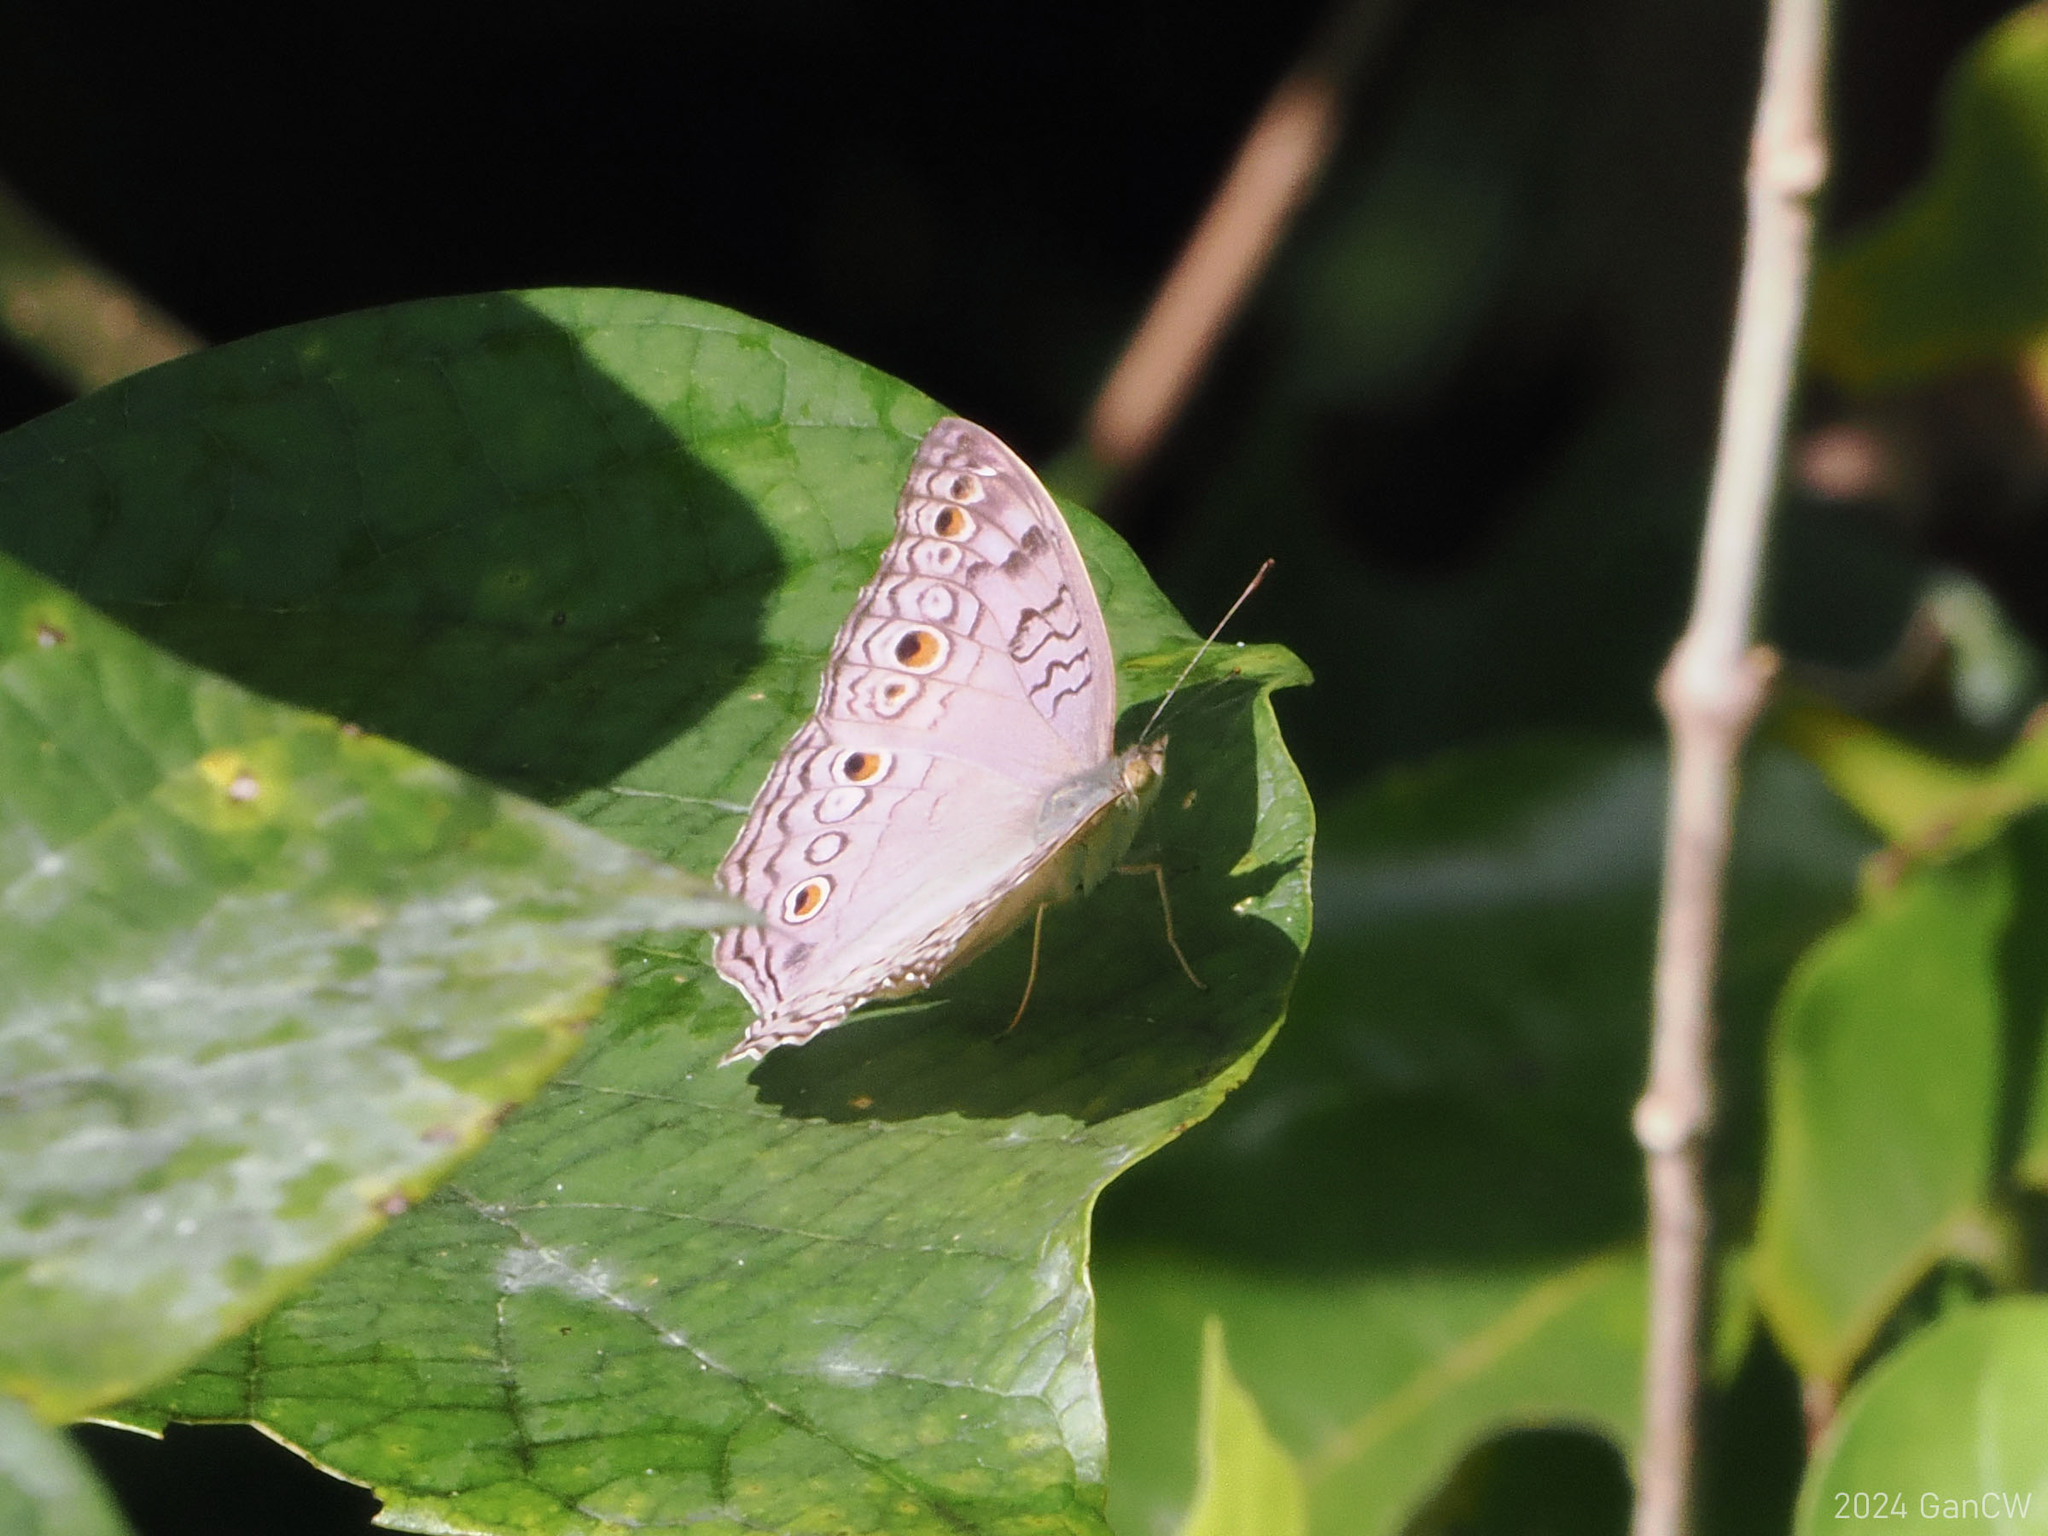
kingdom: Animalia
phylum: Arthropoda
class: Insecta
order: Lepidoptera
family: Nymphalidae
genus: Junonia
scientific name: Junonia atlites
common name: Grey pansy
